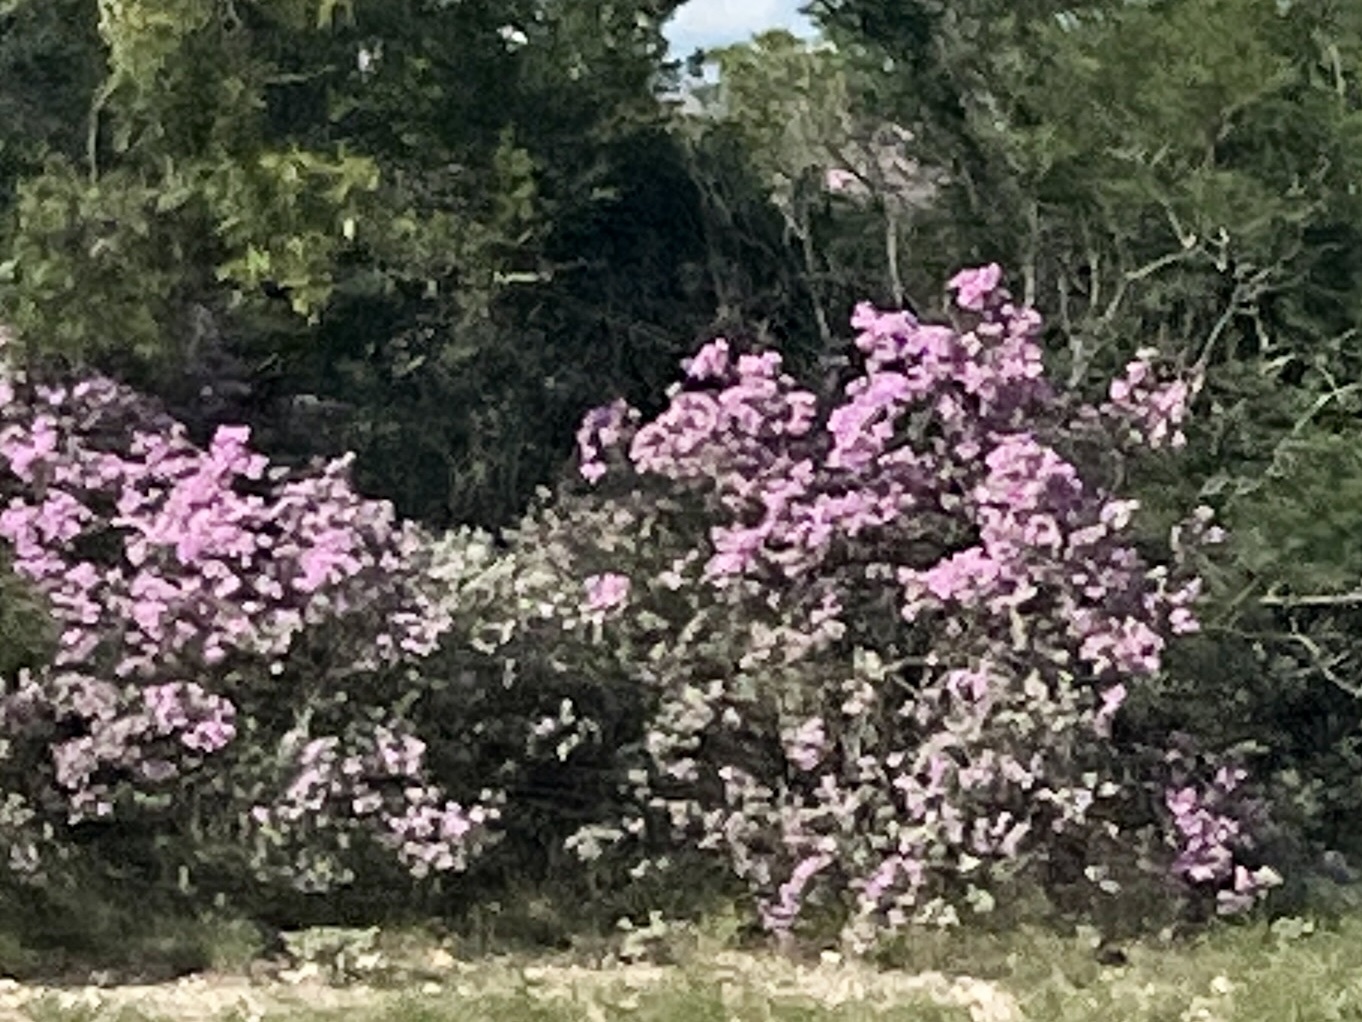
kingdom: Plantae
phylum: Tracheophyta
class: Magnoliopsida
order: Lamiales
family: Scrophulariaceae
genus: Leucophyllum
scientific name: Leucophyllum frutescens
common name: Texas silverleaf
